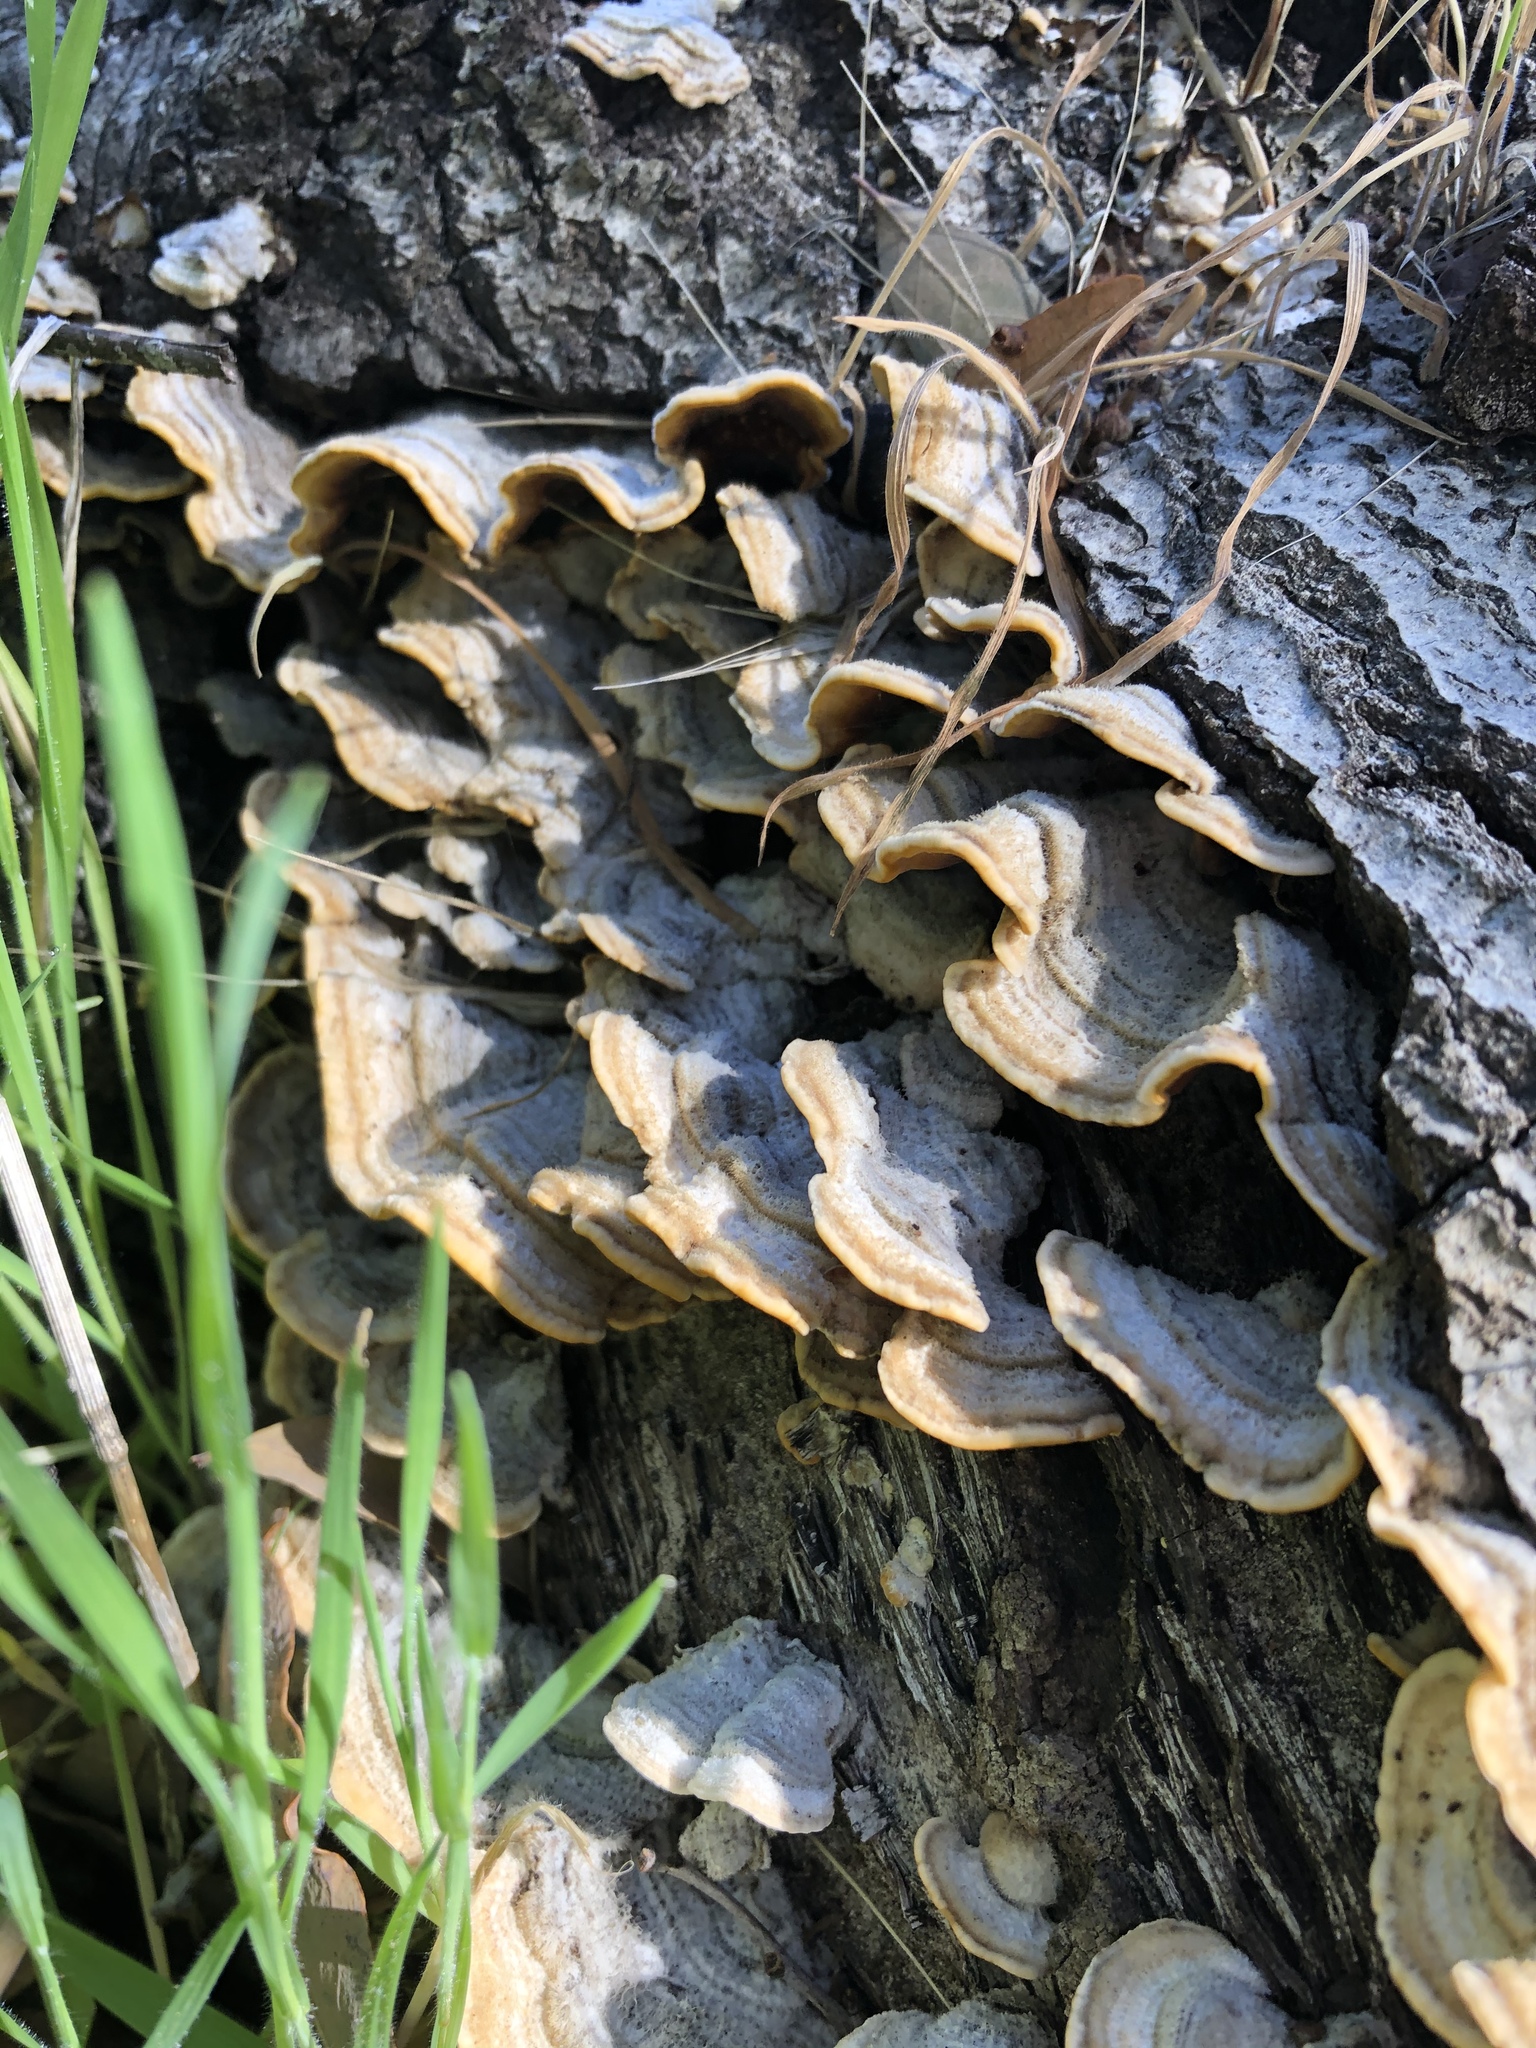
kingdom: Fungi
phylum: Basidiomycota
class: Agaricomycetes
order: Russulales
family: Stereaceae
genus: Stereum
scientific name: Stereum hirsutum
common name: Hairy curtain crust
